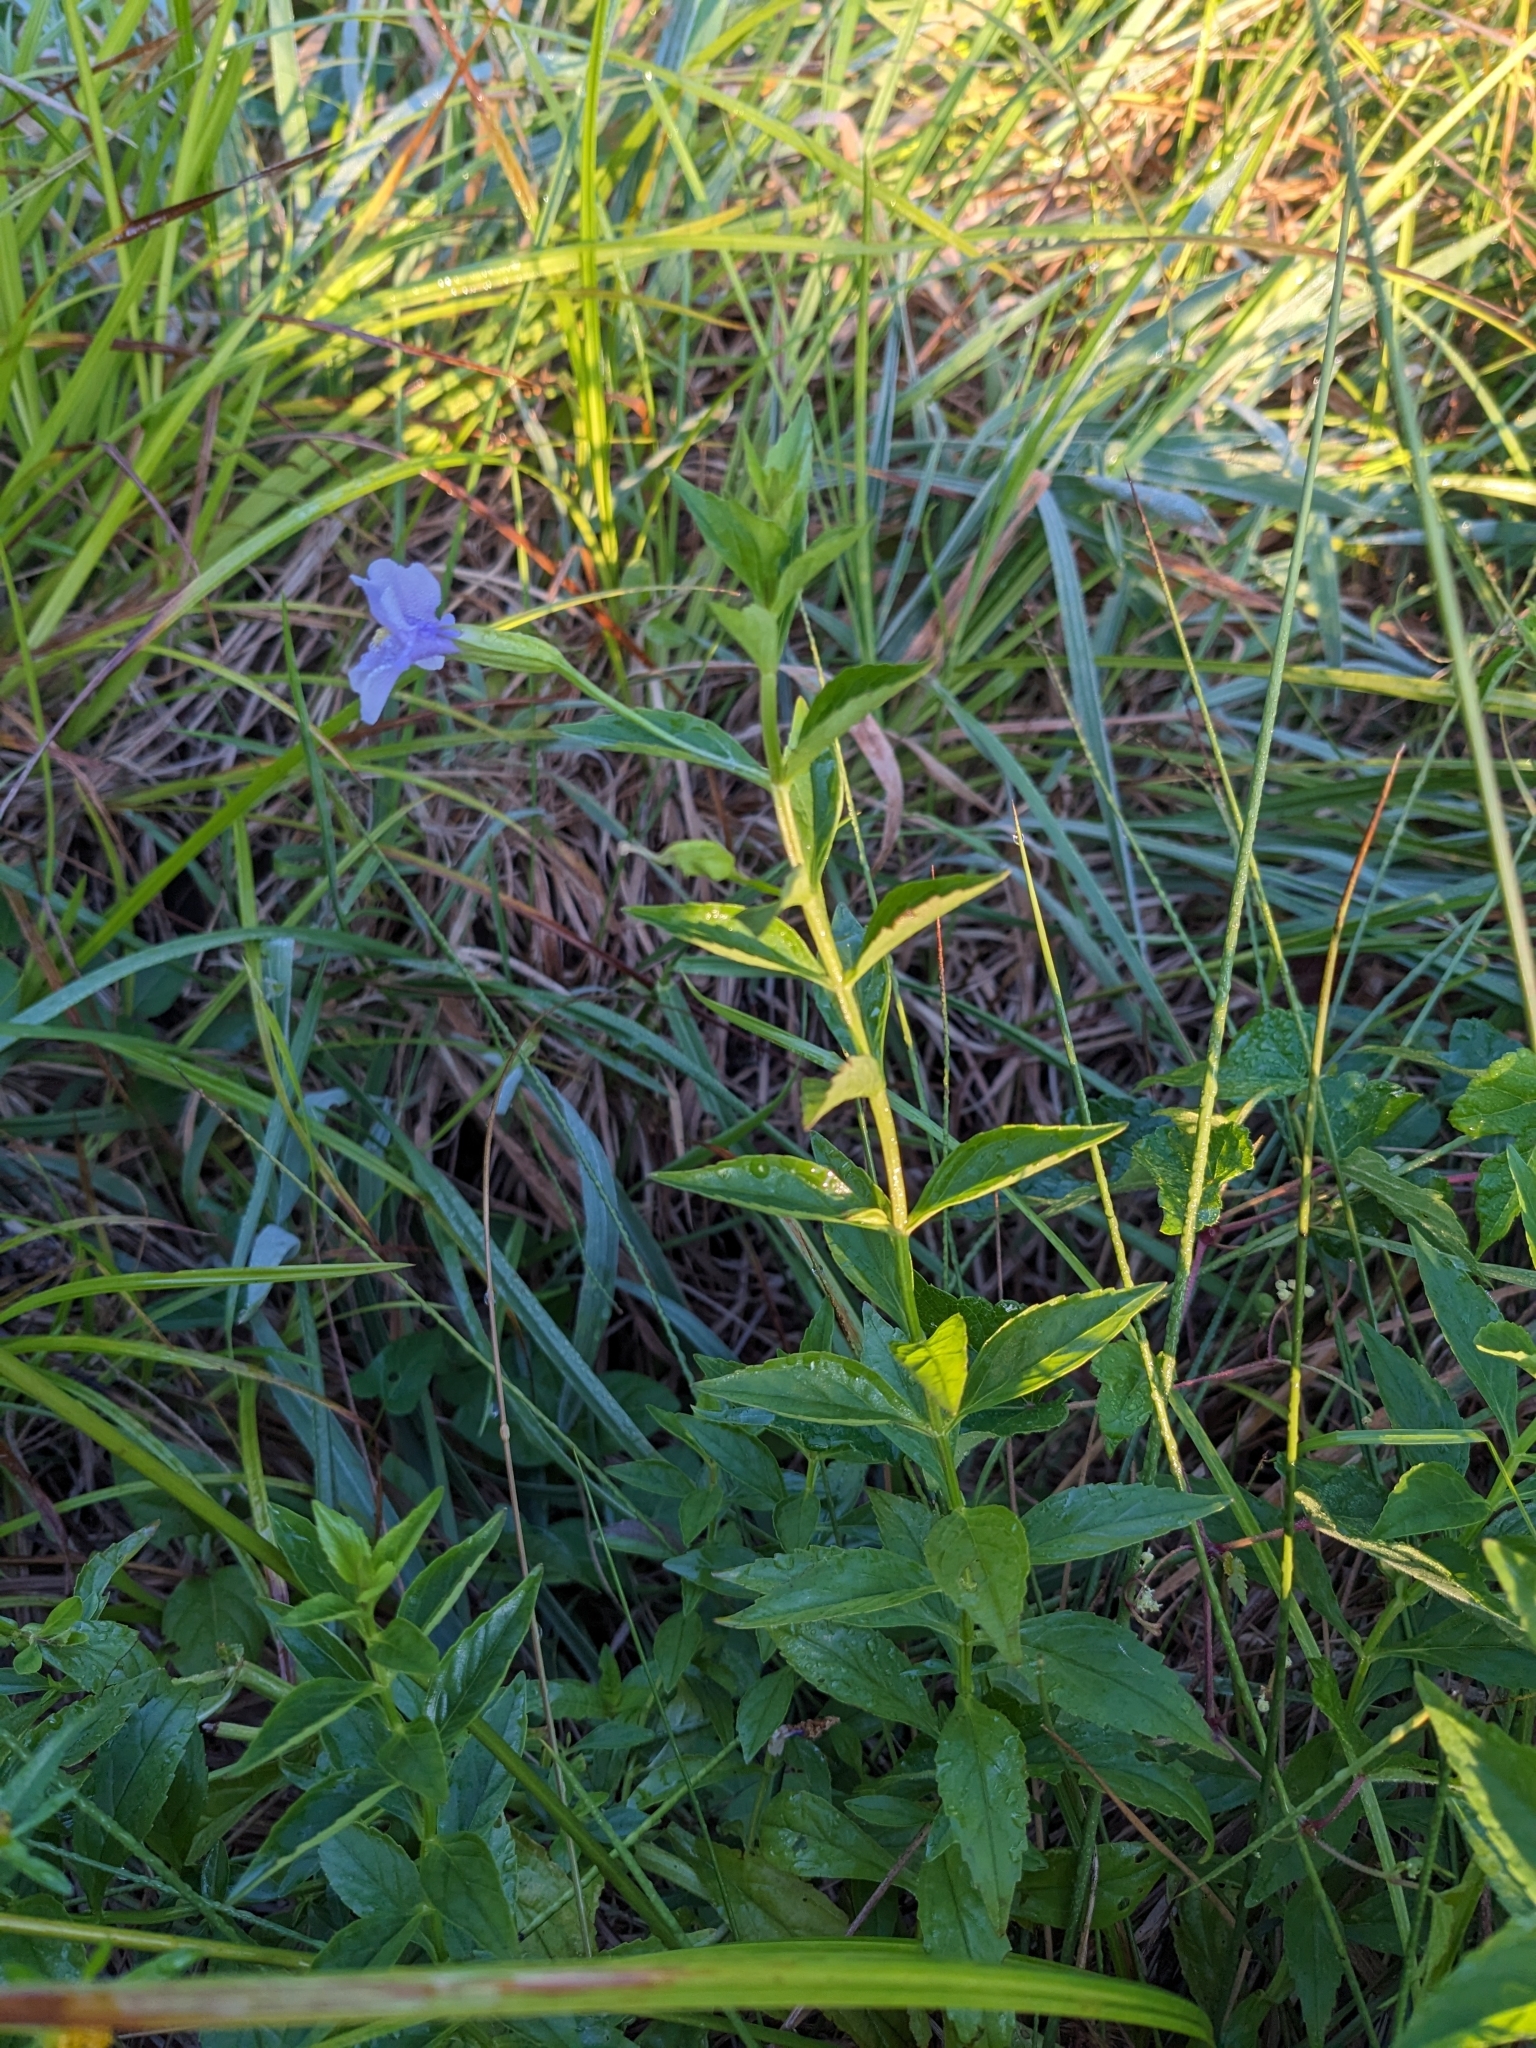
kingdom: Plantae
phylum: Tracheophyta
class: Magnoliopsida
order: Lamiales
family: Phrymaceae
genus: Mimulus
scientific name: Mimulus ringens
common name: Allegheny monkeyflower
